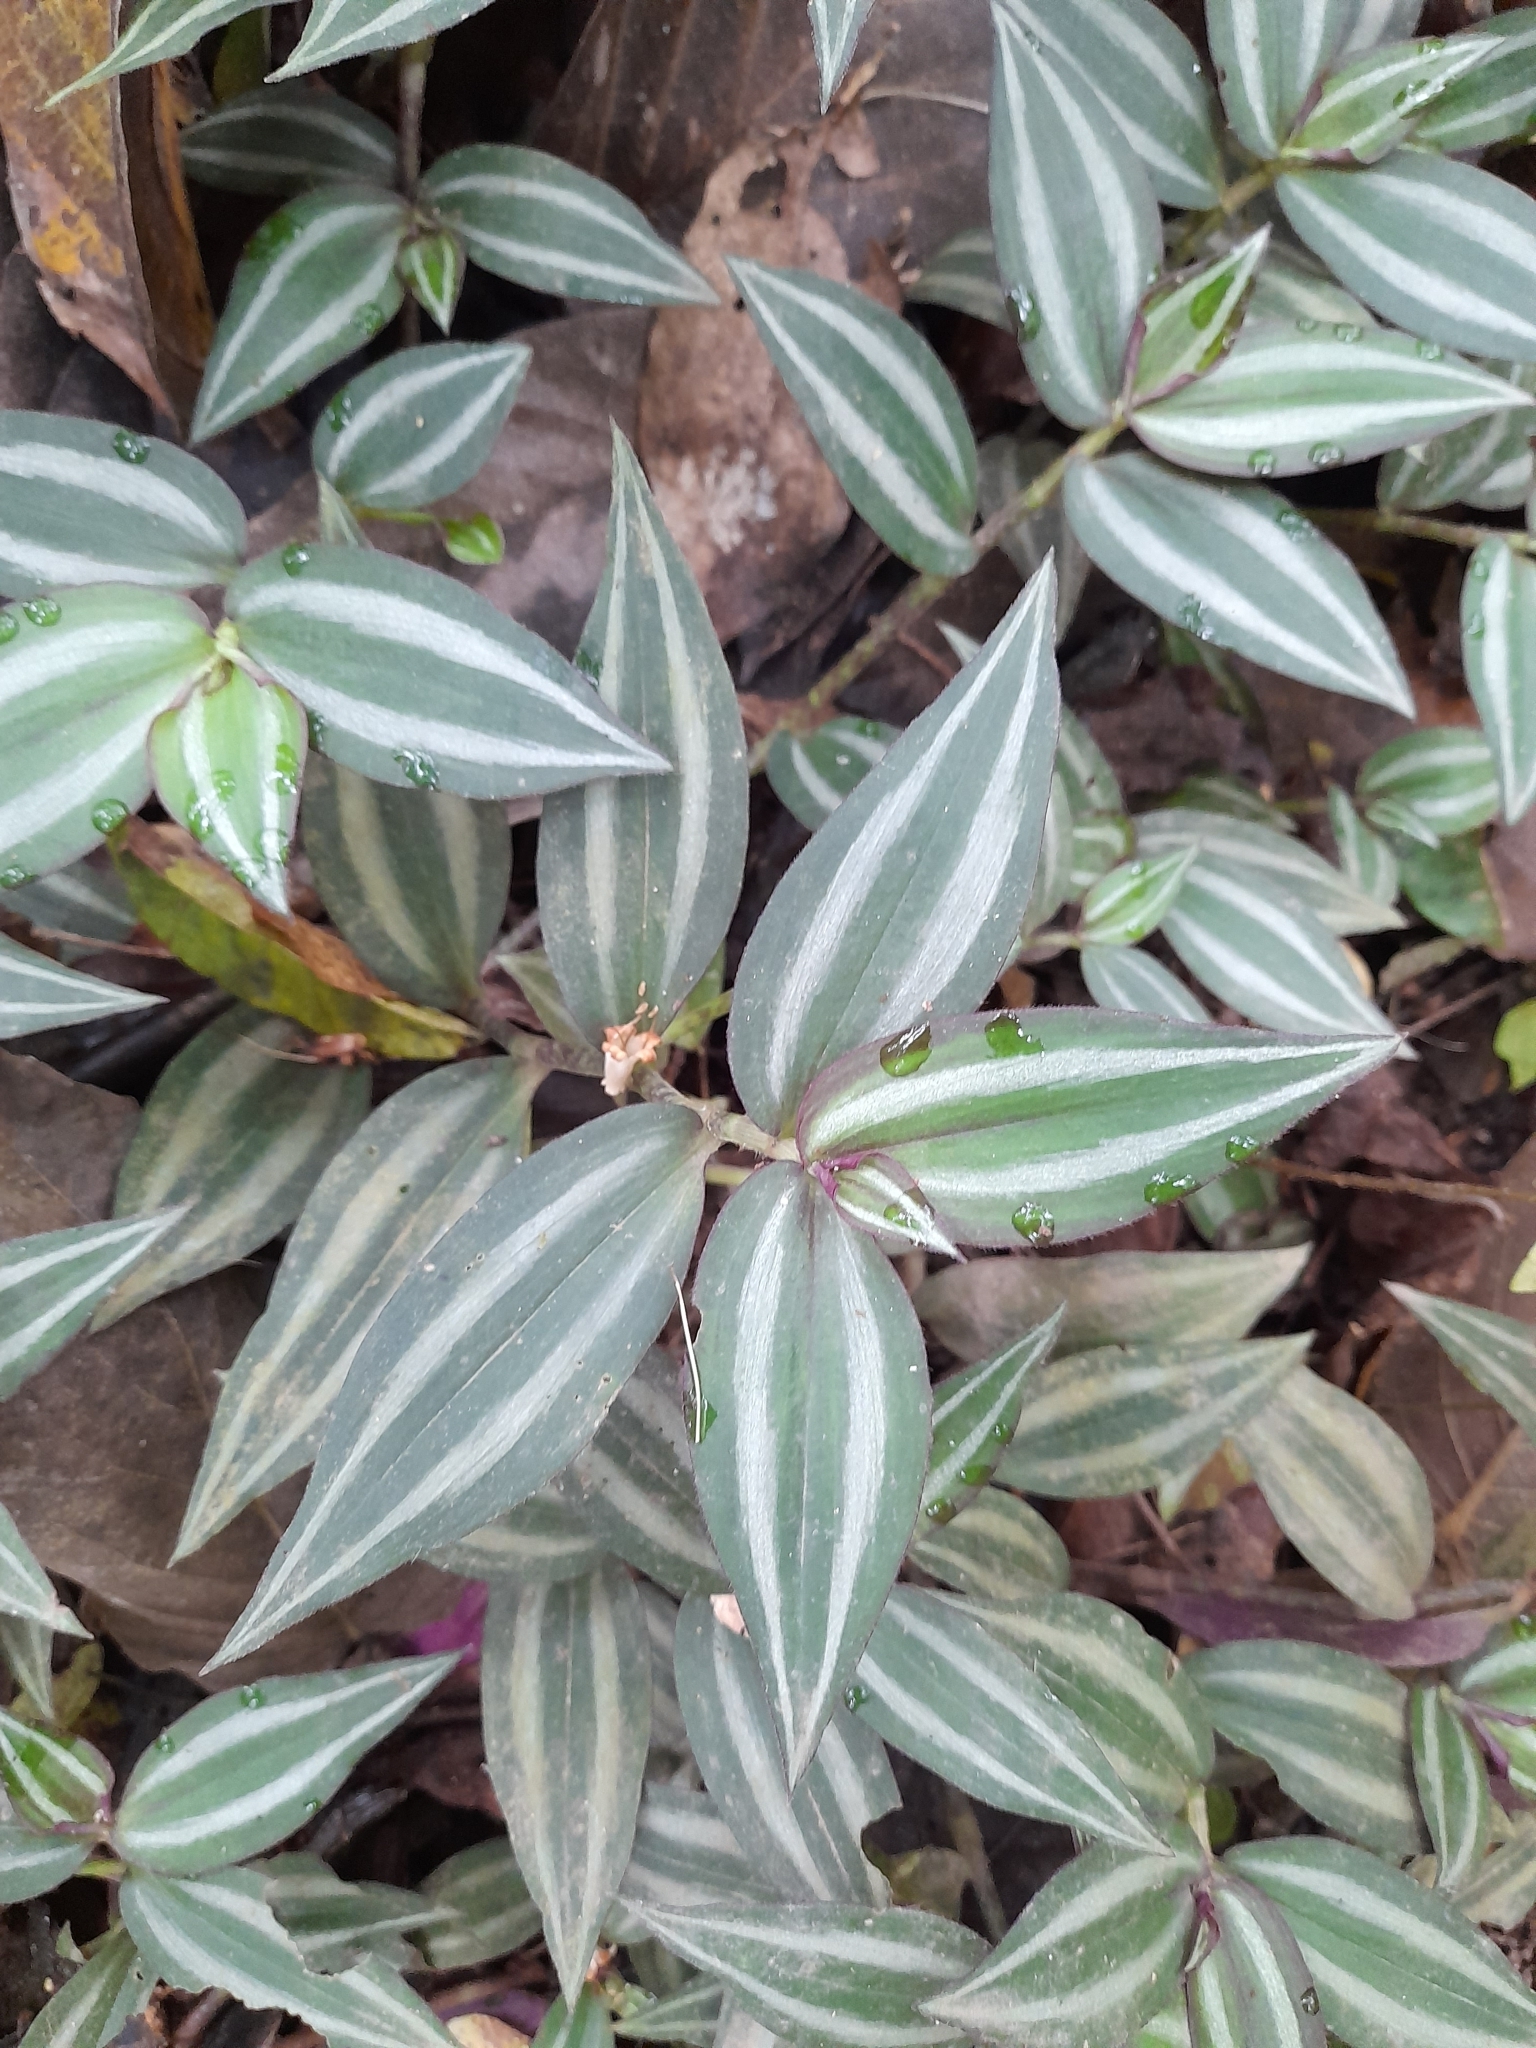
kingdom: Plantae
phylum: Tracheophyta
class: Liliopsida
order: Commelinales
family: Commelinaceae
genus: Tradescantia
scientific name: Tradescantia zebrina
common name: Inchplant
